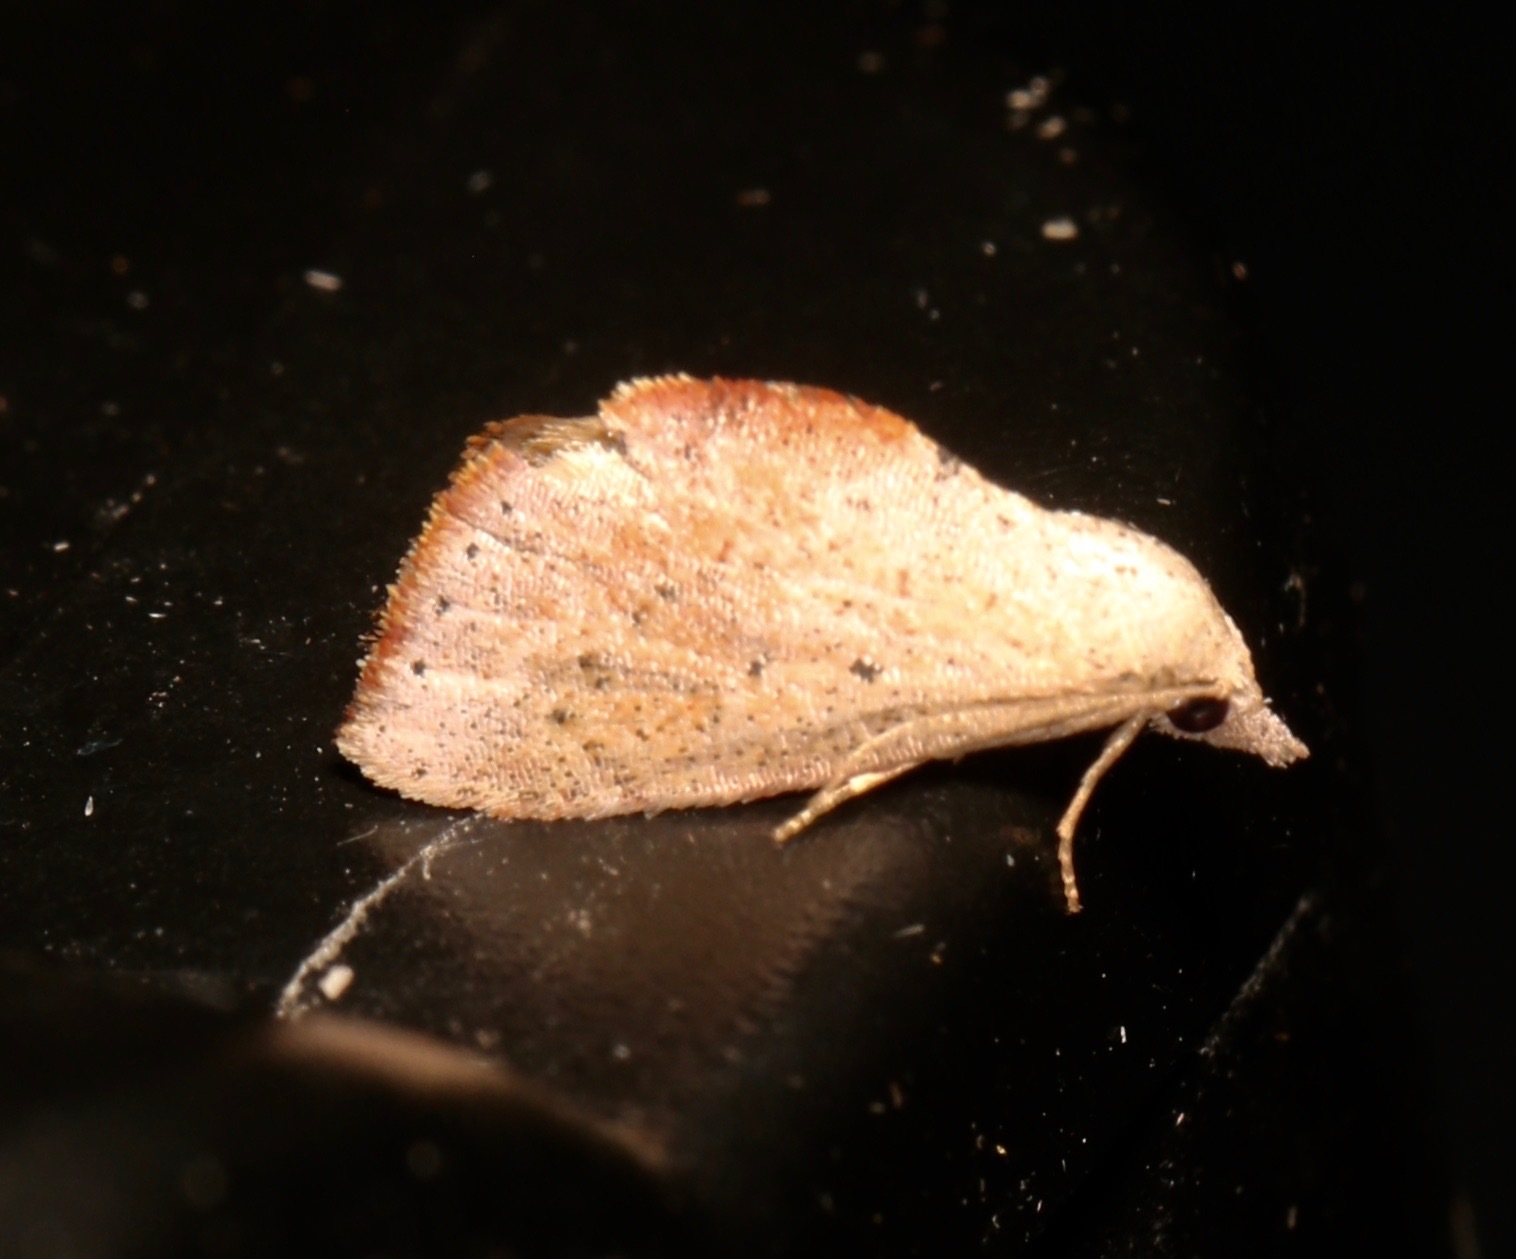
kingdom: Animalia
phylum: Arthropoda
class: Insecta
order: Lepidoptera
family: Noctuidae
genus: Proroblemma
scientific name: Proroblemma testa
